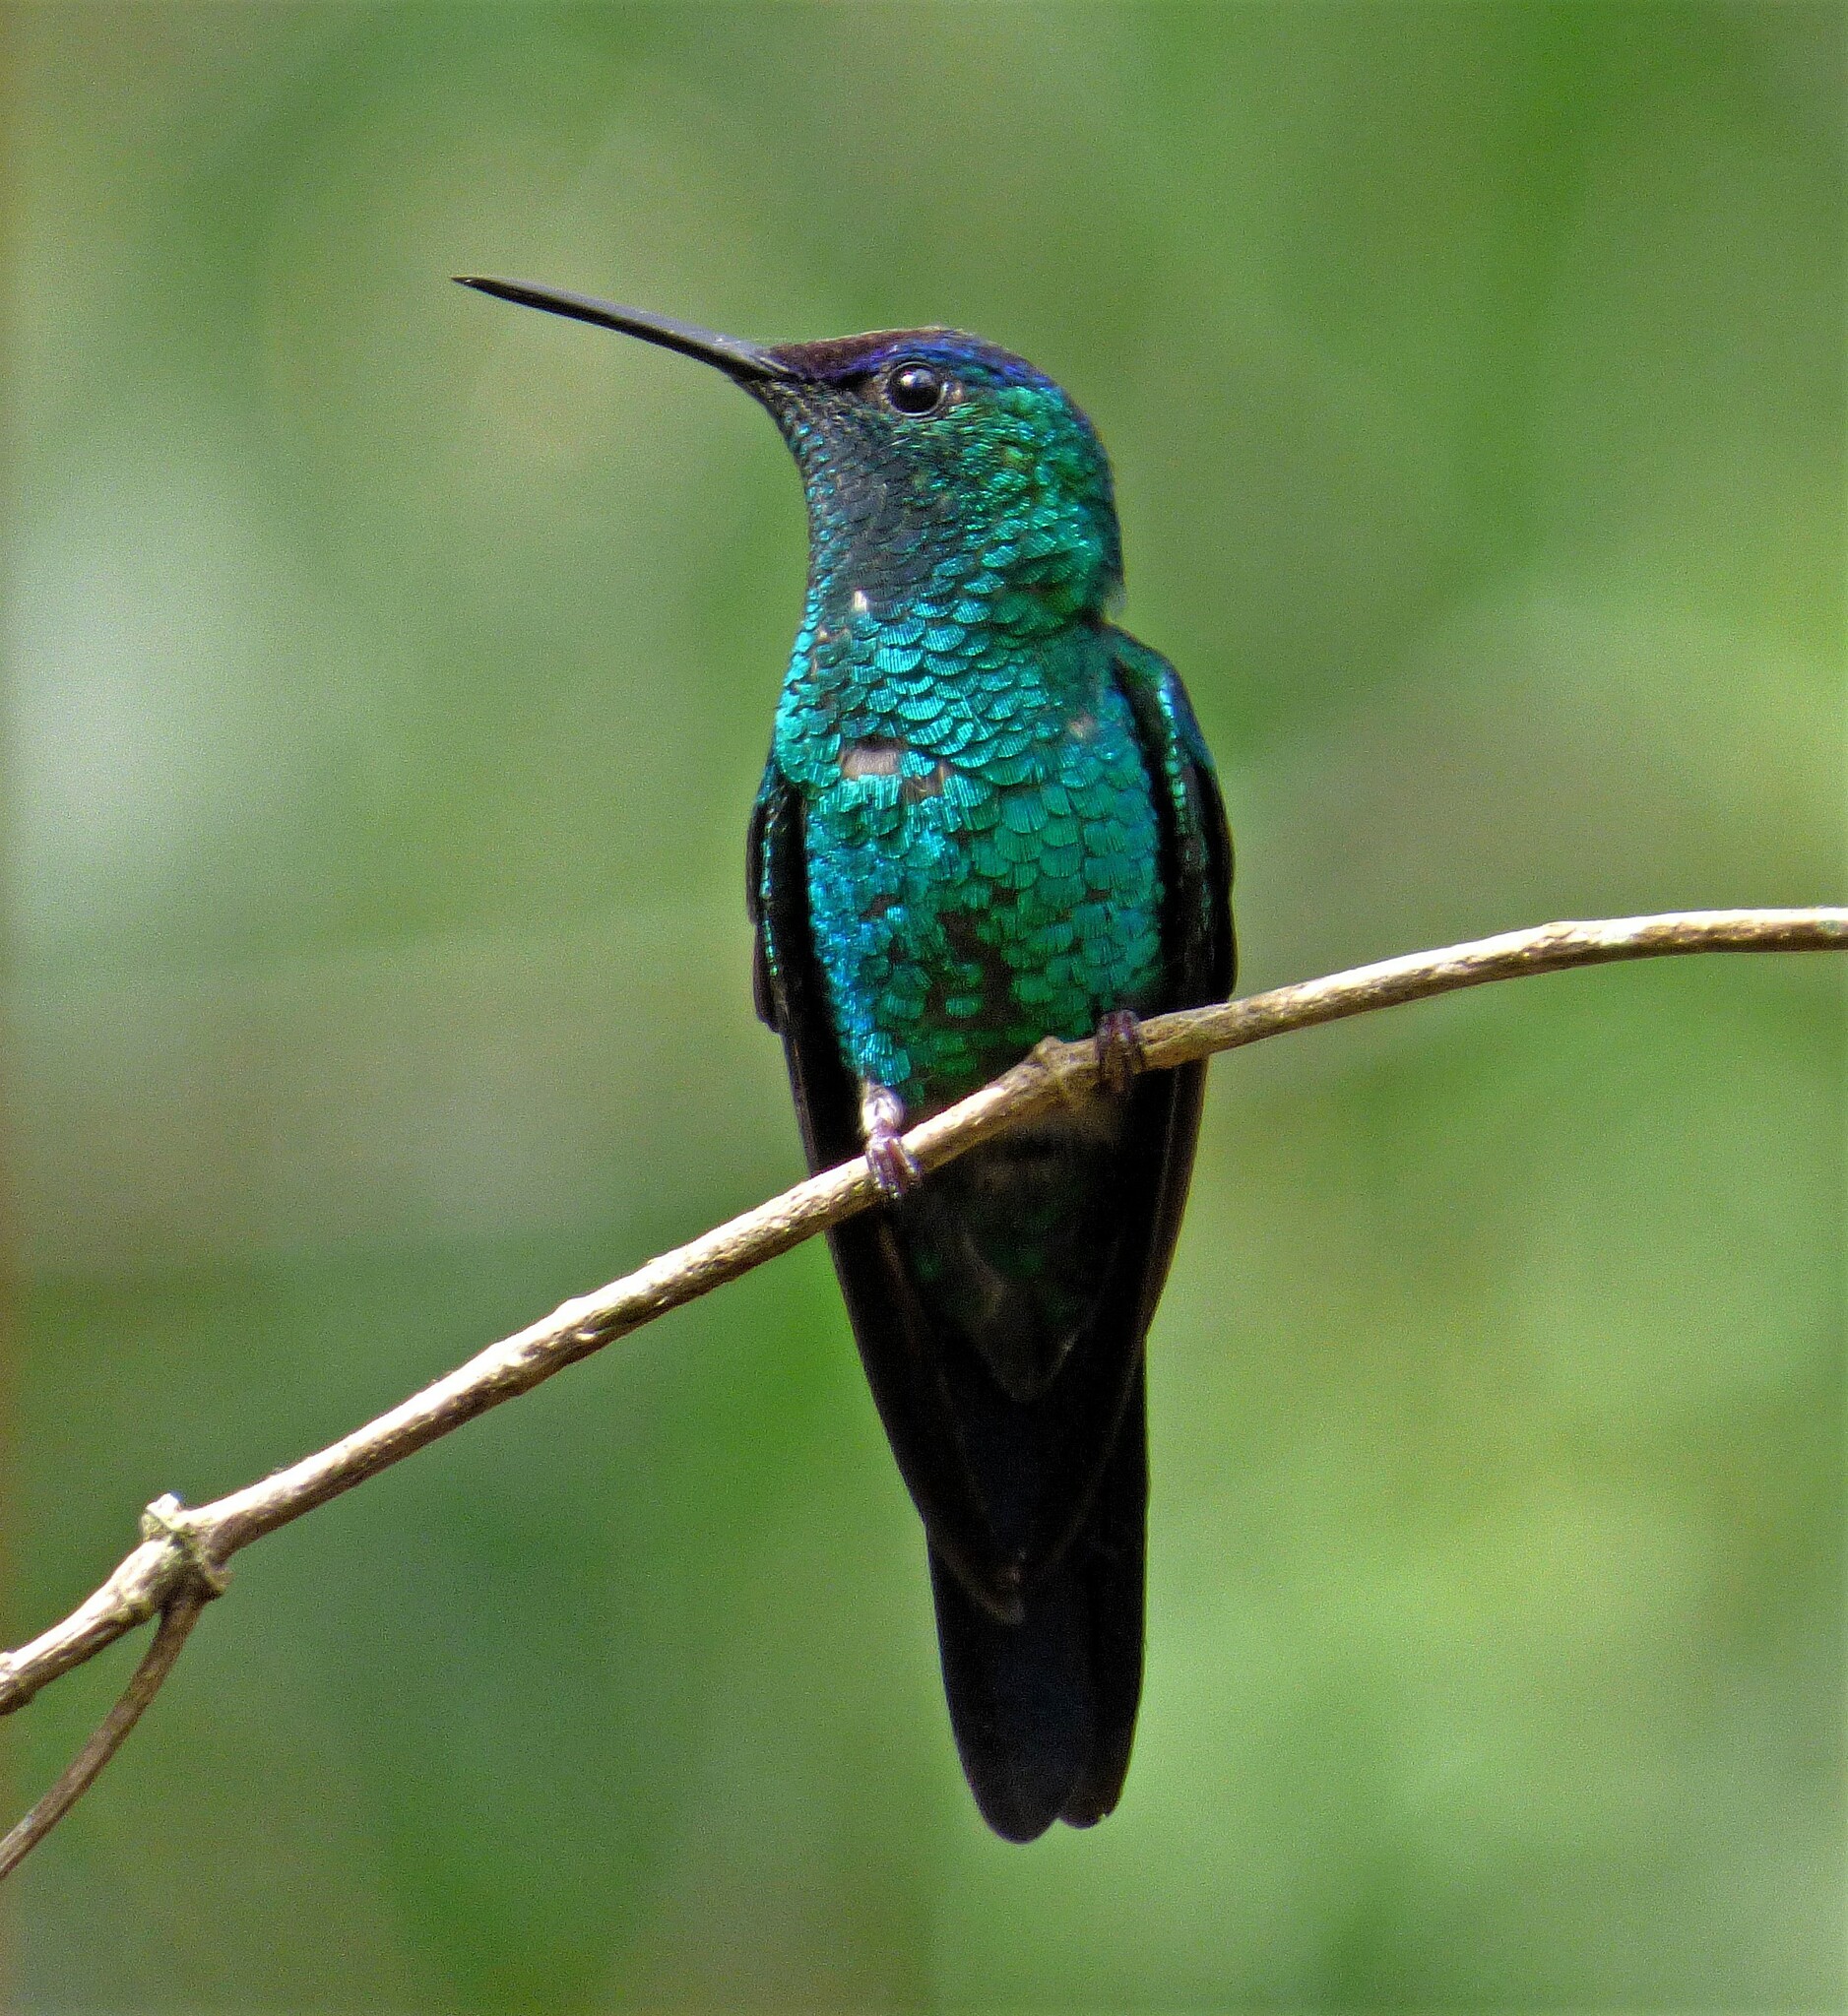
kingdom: Animalia
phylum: Chordata
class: Aves
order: Apodiformes
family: Trochilidae
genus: Thalurania
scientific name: Thalurania glaucopis
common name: Violet-capped woodnymph
